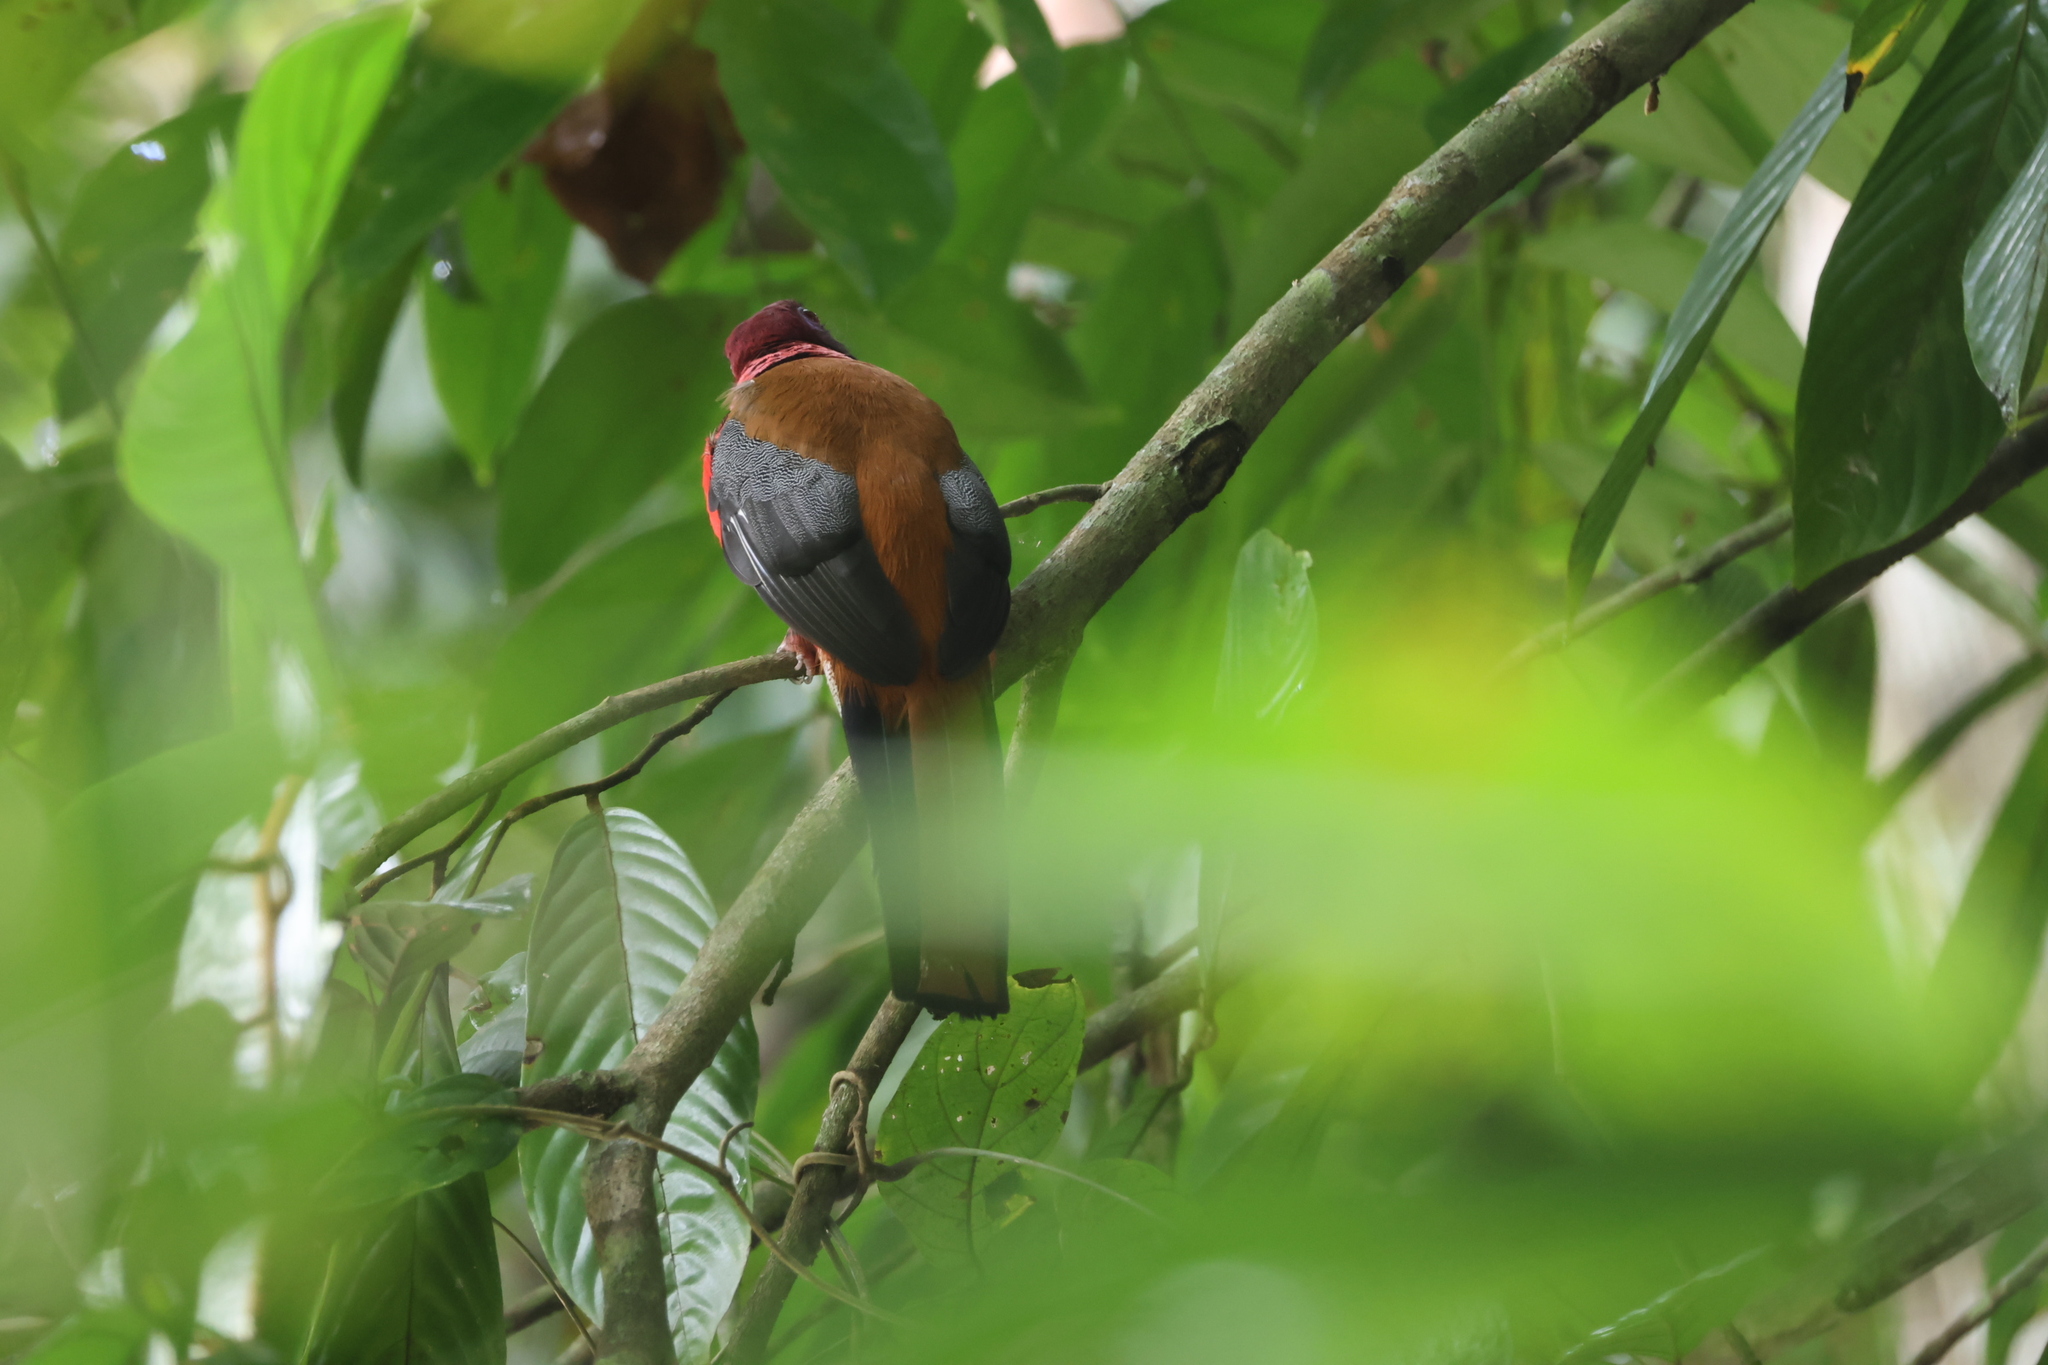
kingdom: Animalia
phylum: Chordata
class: Aves
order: Trogoniformes
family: Trogonidae
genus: Harpactes
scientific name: Harpactes diardii
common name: Diard's trogon
